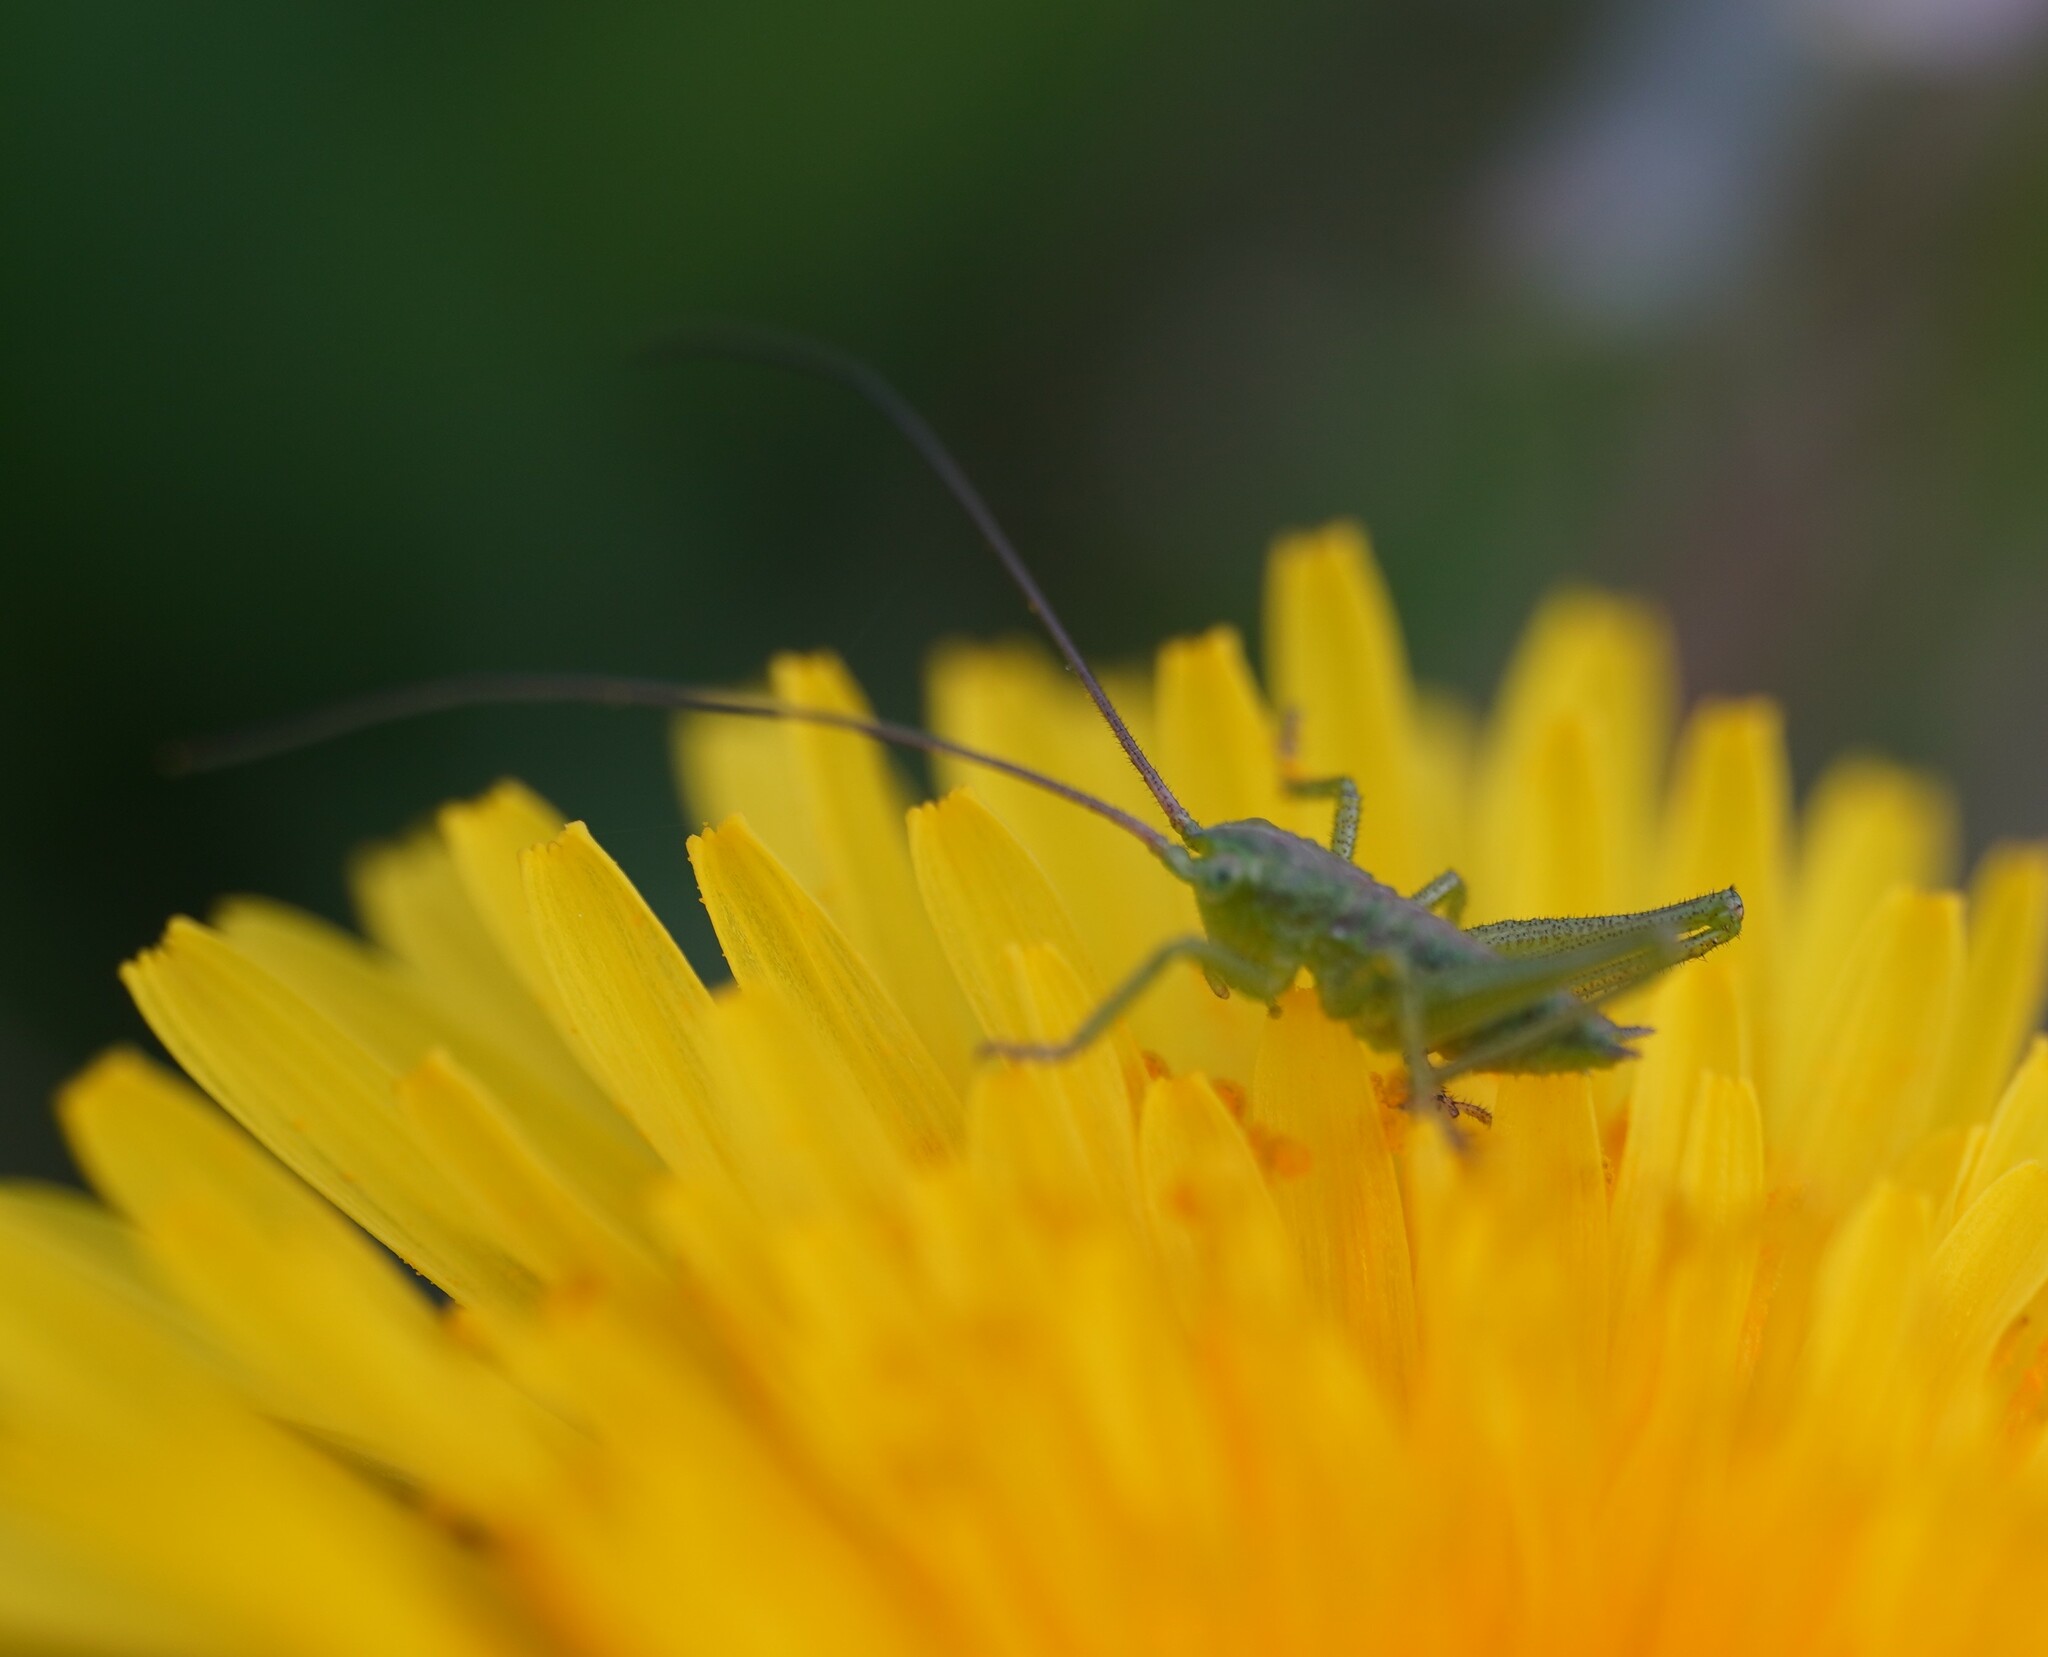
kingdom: Animalia
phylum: Arthropoda
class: Insecta
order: Orthoptera
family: Tettigoniidae
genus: Tettigonia
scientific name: Tettigonia viridissima
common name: Great green bush-cricket
